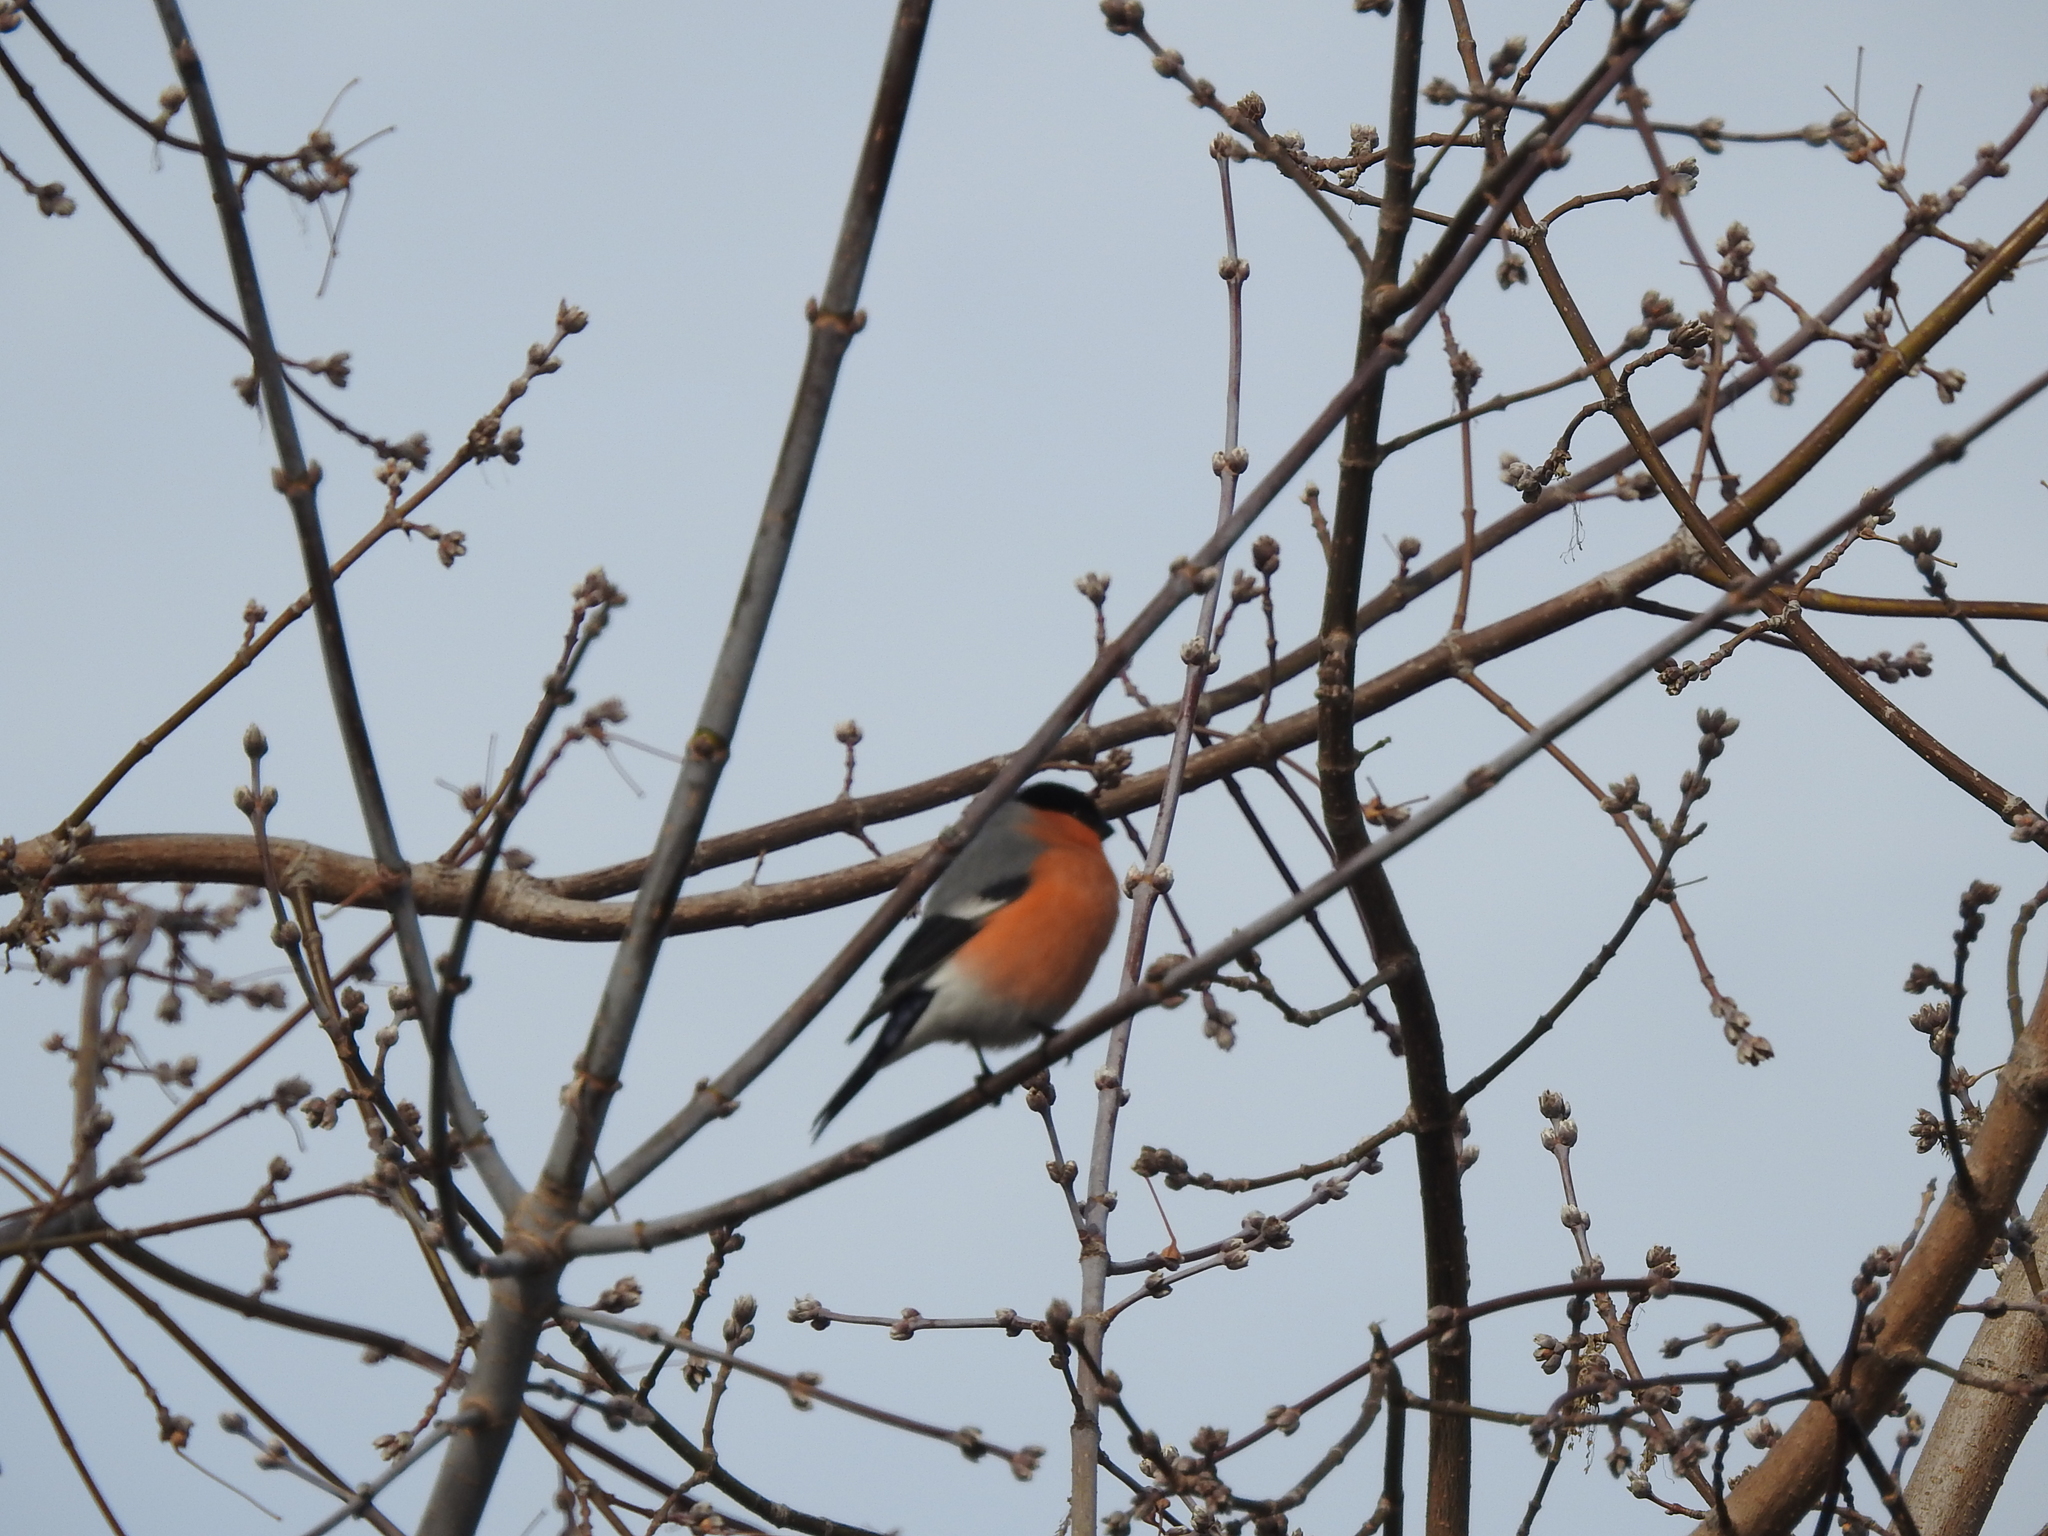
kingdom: Animalia
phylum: Chordata
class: Aves
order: Passeriformes
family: Fringillidae
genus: Pyrrhula
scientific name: Pyrrhula pyrrhula
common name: Eurasian bullfinch
